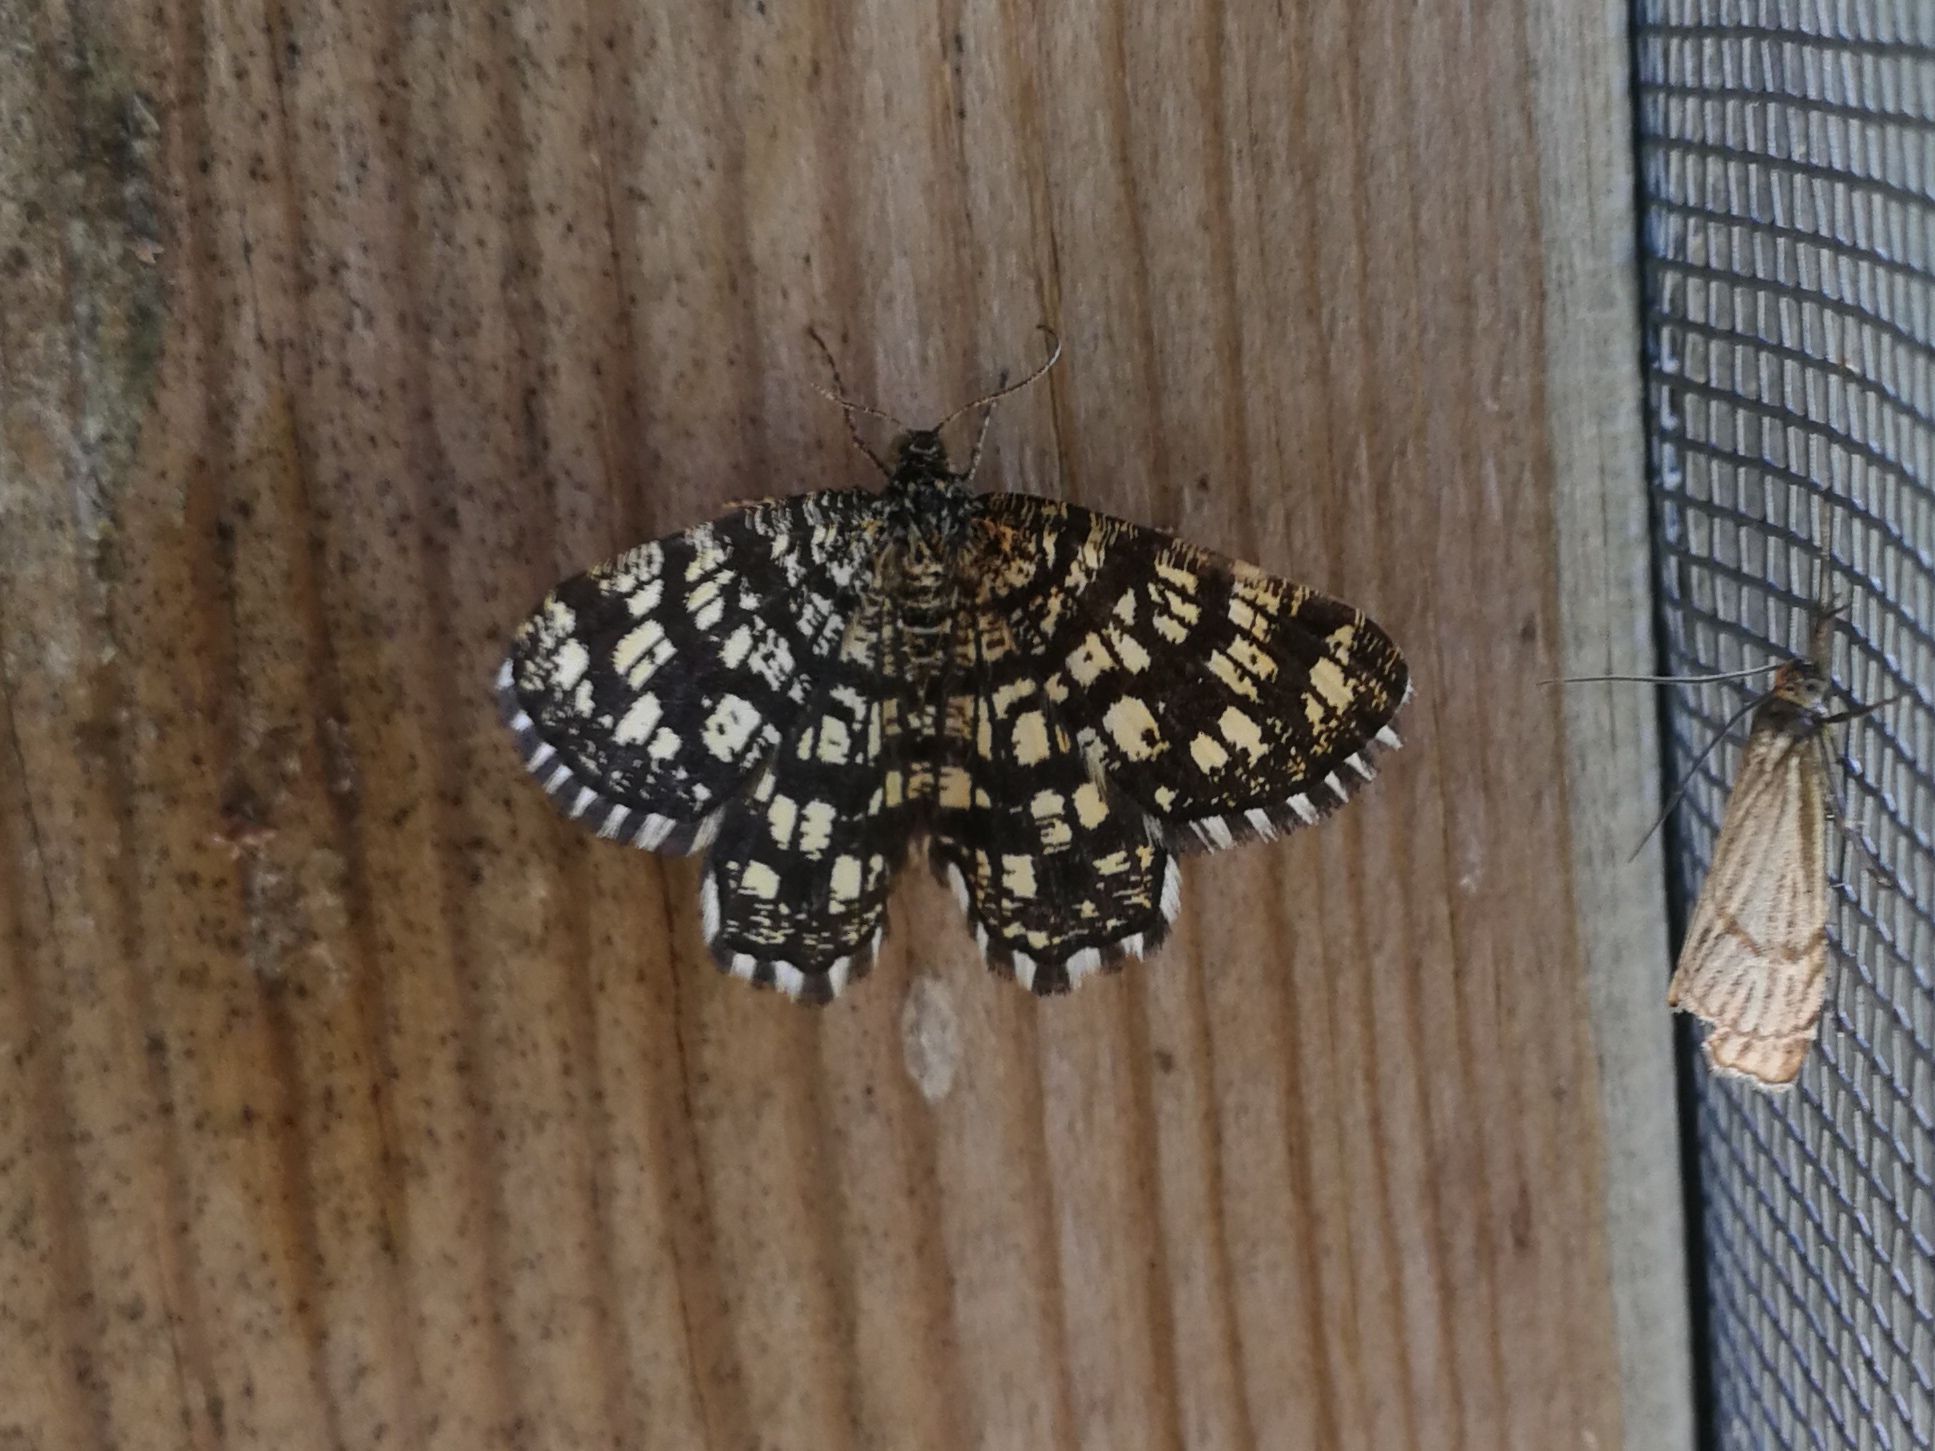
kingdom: Animalia
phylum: Arthropoda
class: Insecta
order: Lepidoptera
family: Geometridae
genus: Chiasmia
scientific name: Chiasmia clathrata
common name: Latticed heath
